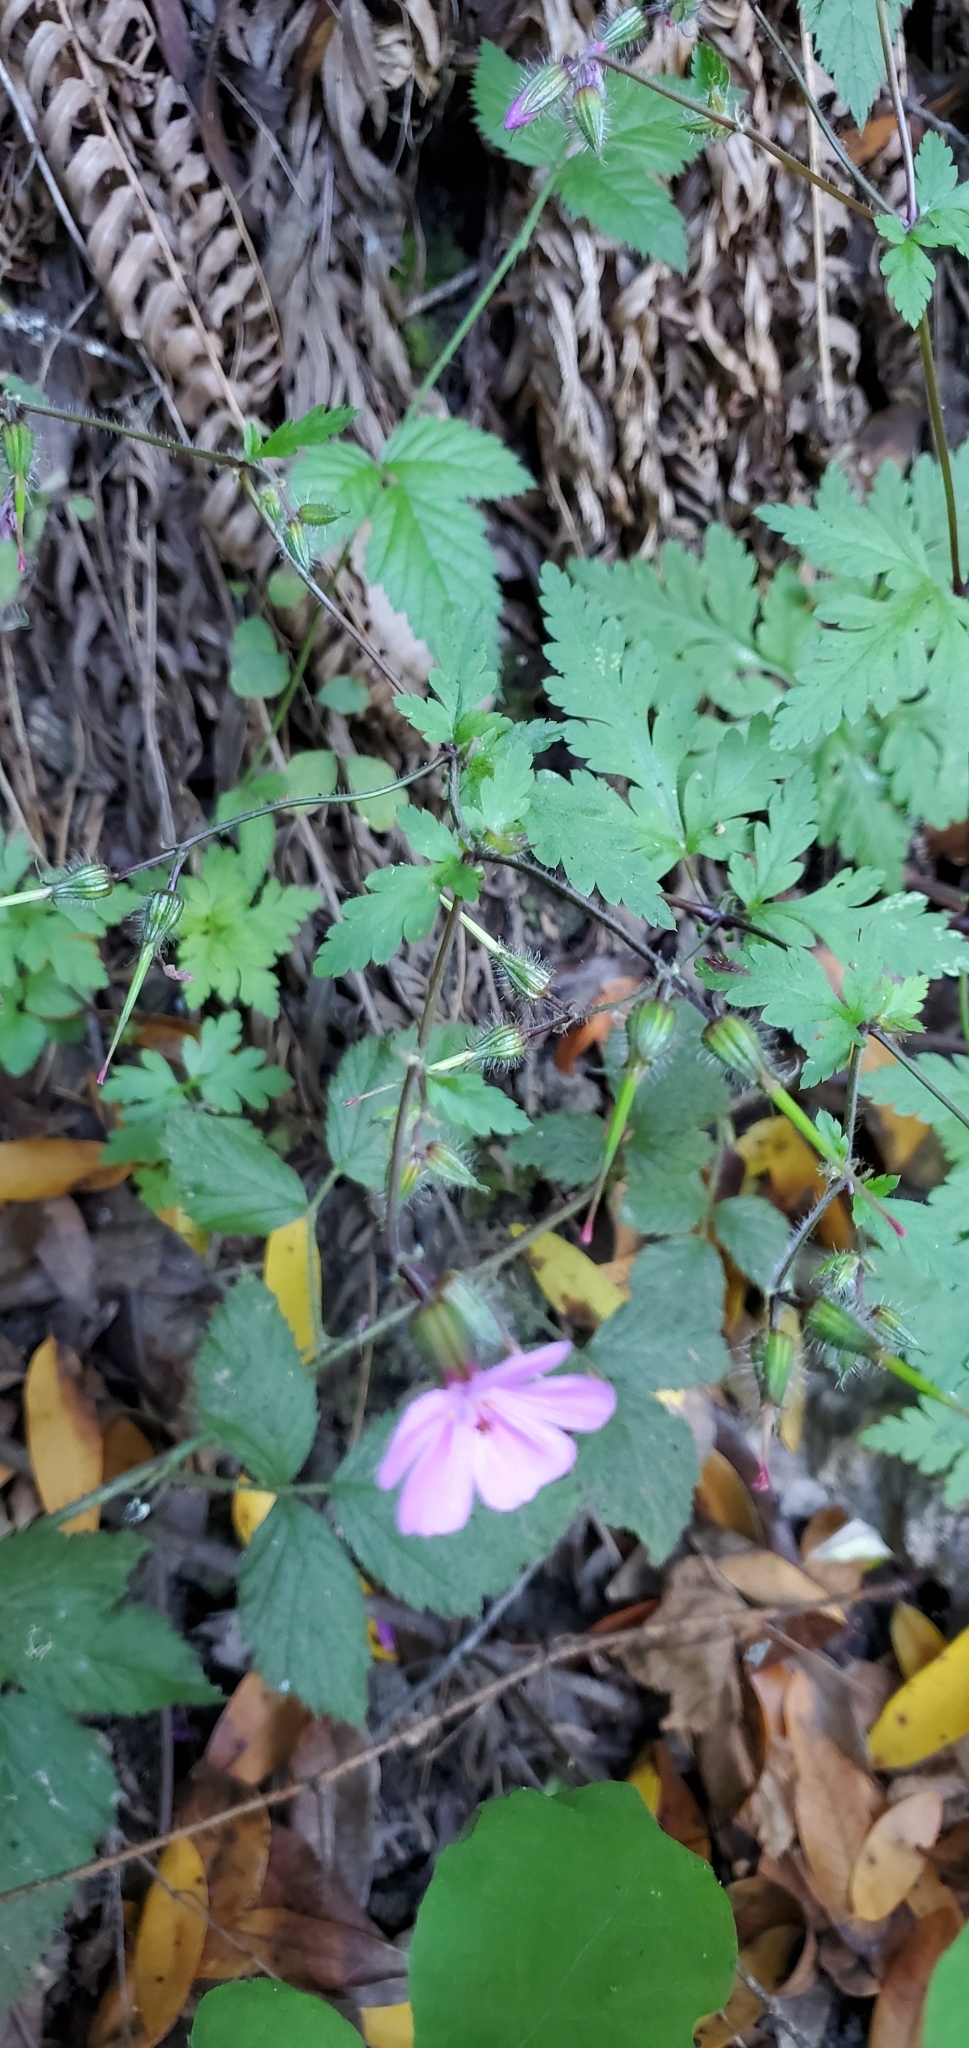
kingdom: Plantae
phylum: Tracheophyta
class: Magnoliopsida
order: Geraniales
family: Geraniaceae
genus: Geranium
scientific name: Geranium robertianum
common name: Herb-robert
